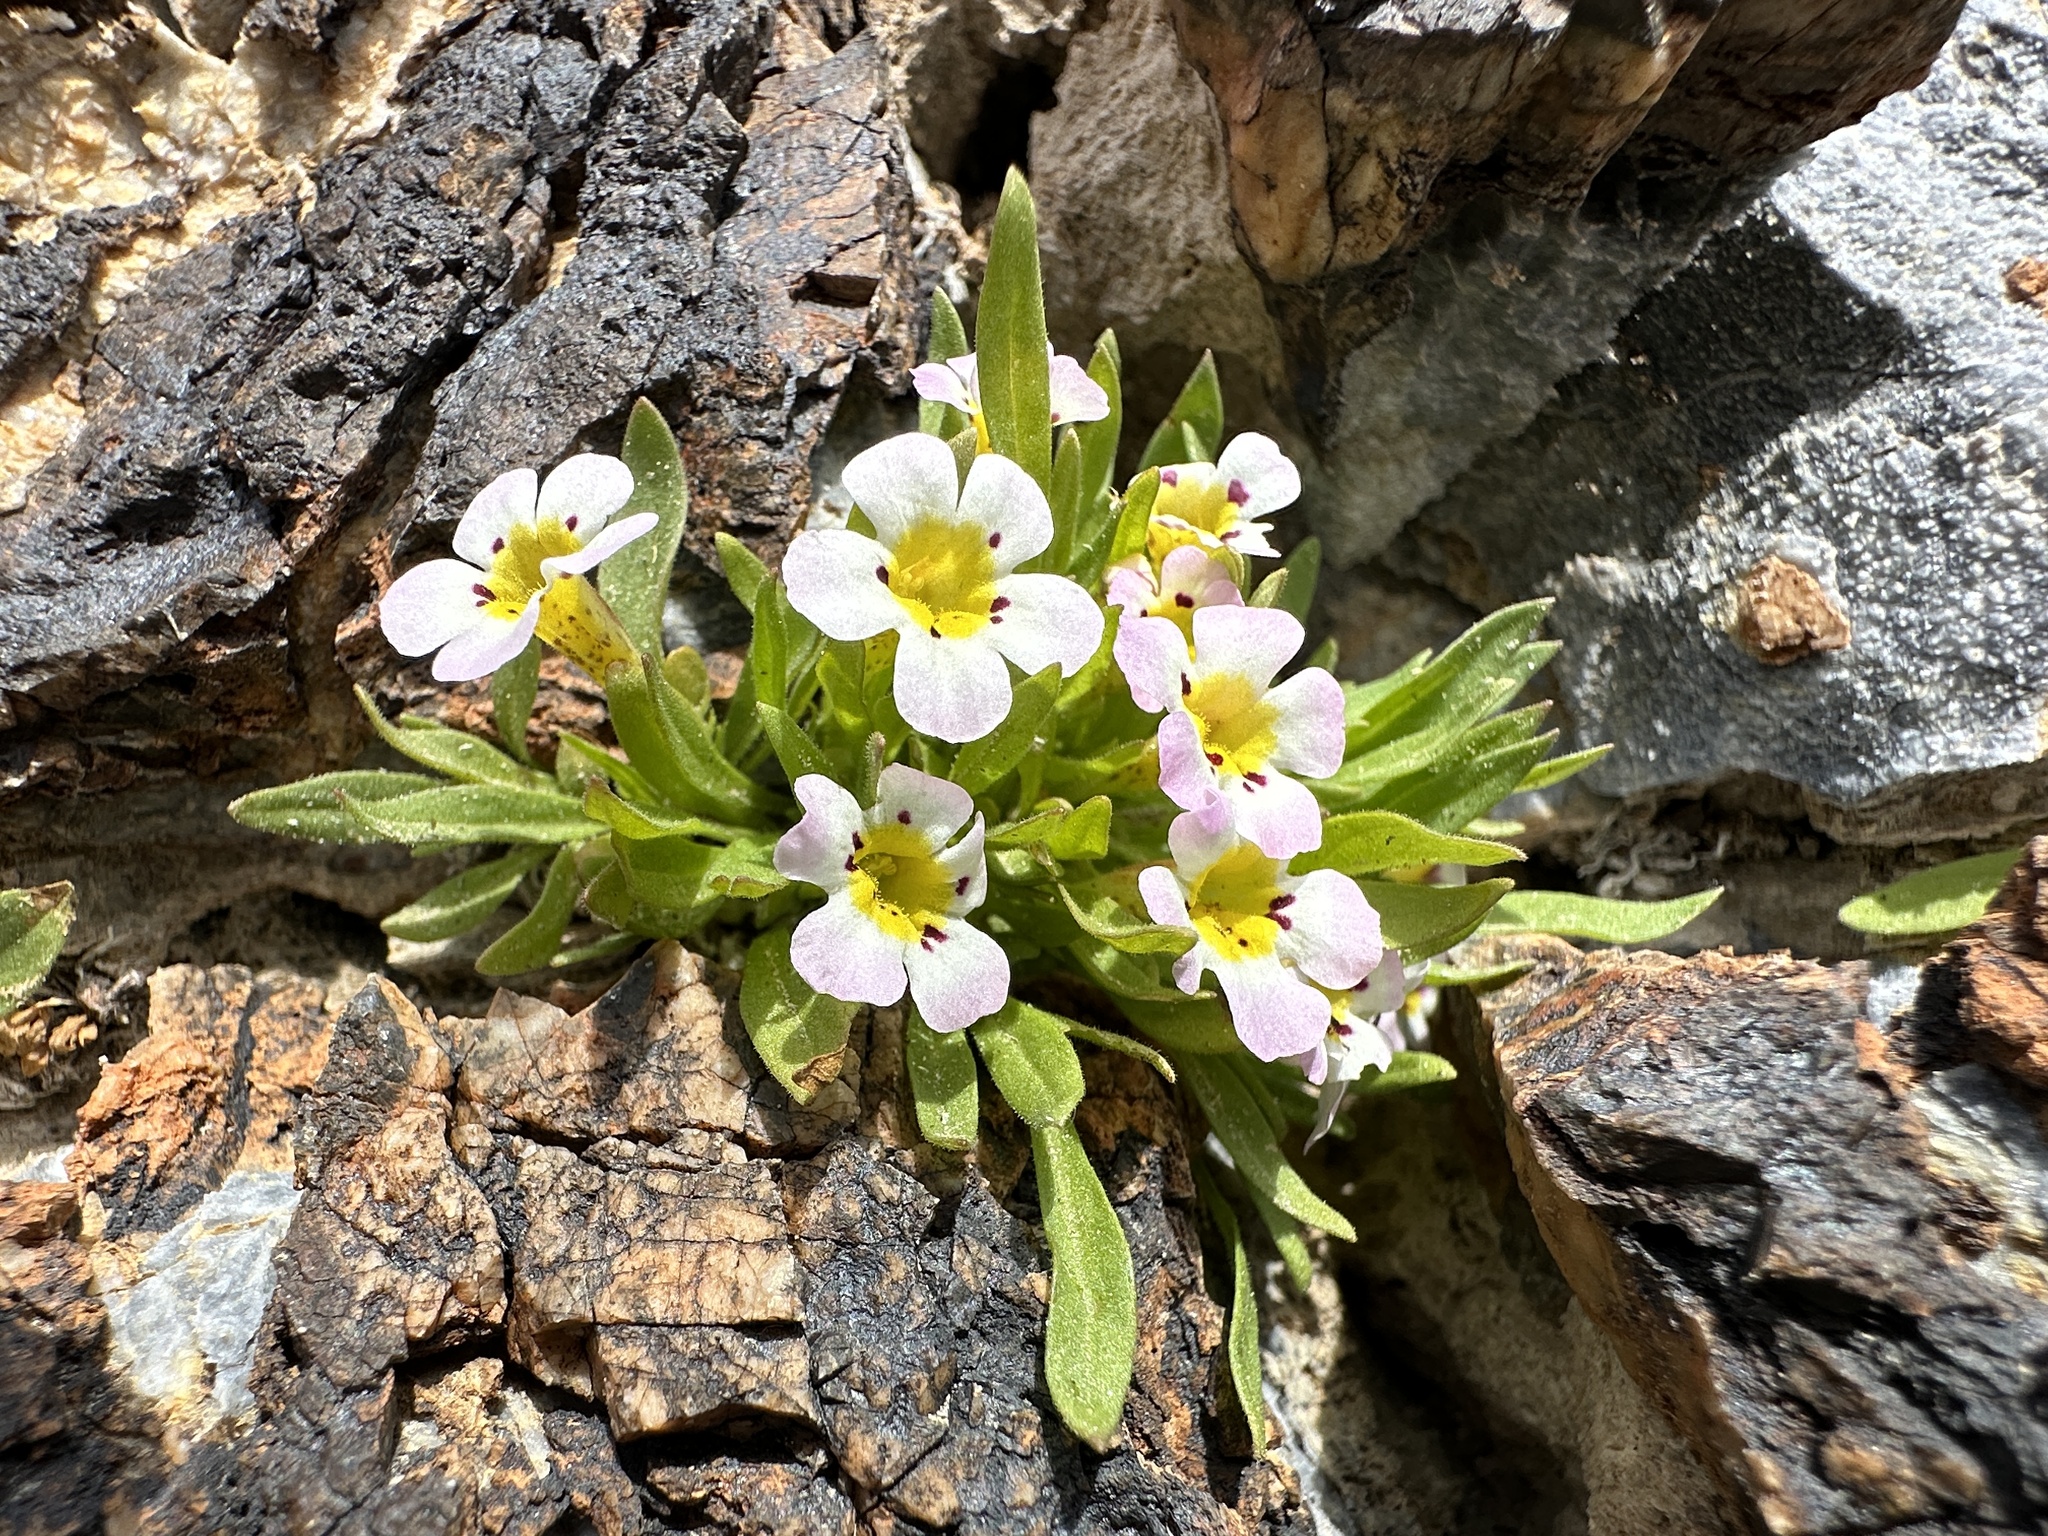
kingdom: Plantae
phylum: Tracheophyta
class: Magnoliopsida
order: Lamiales
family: Phrymaceae
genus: Diplacus
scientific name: Diplacus rupicola
